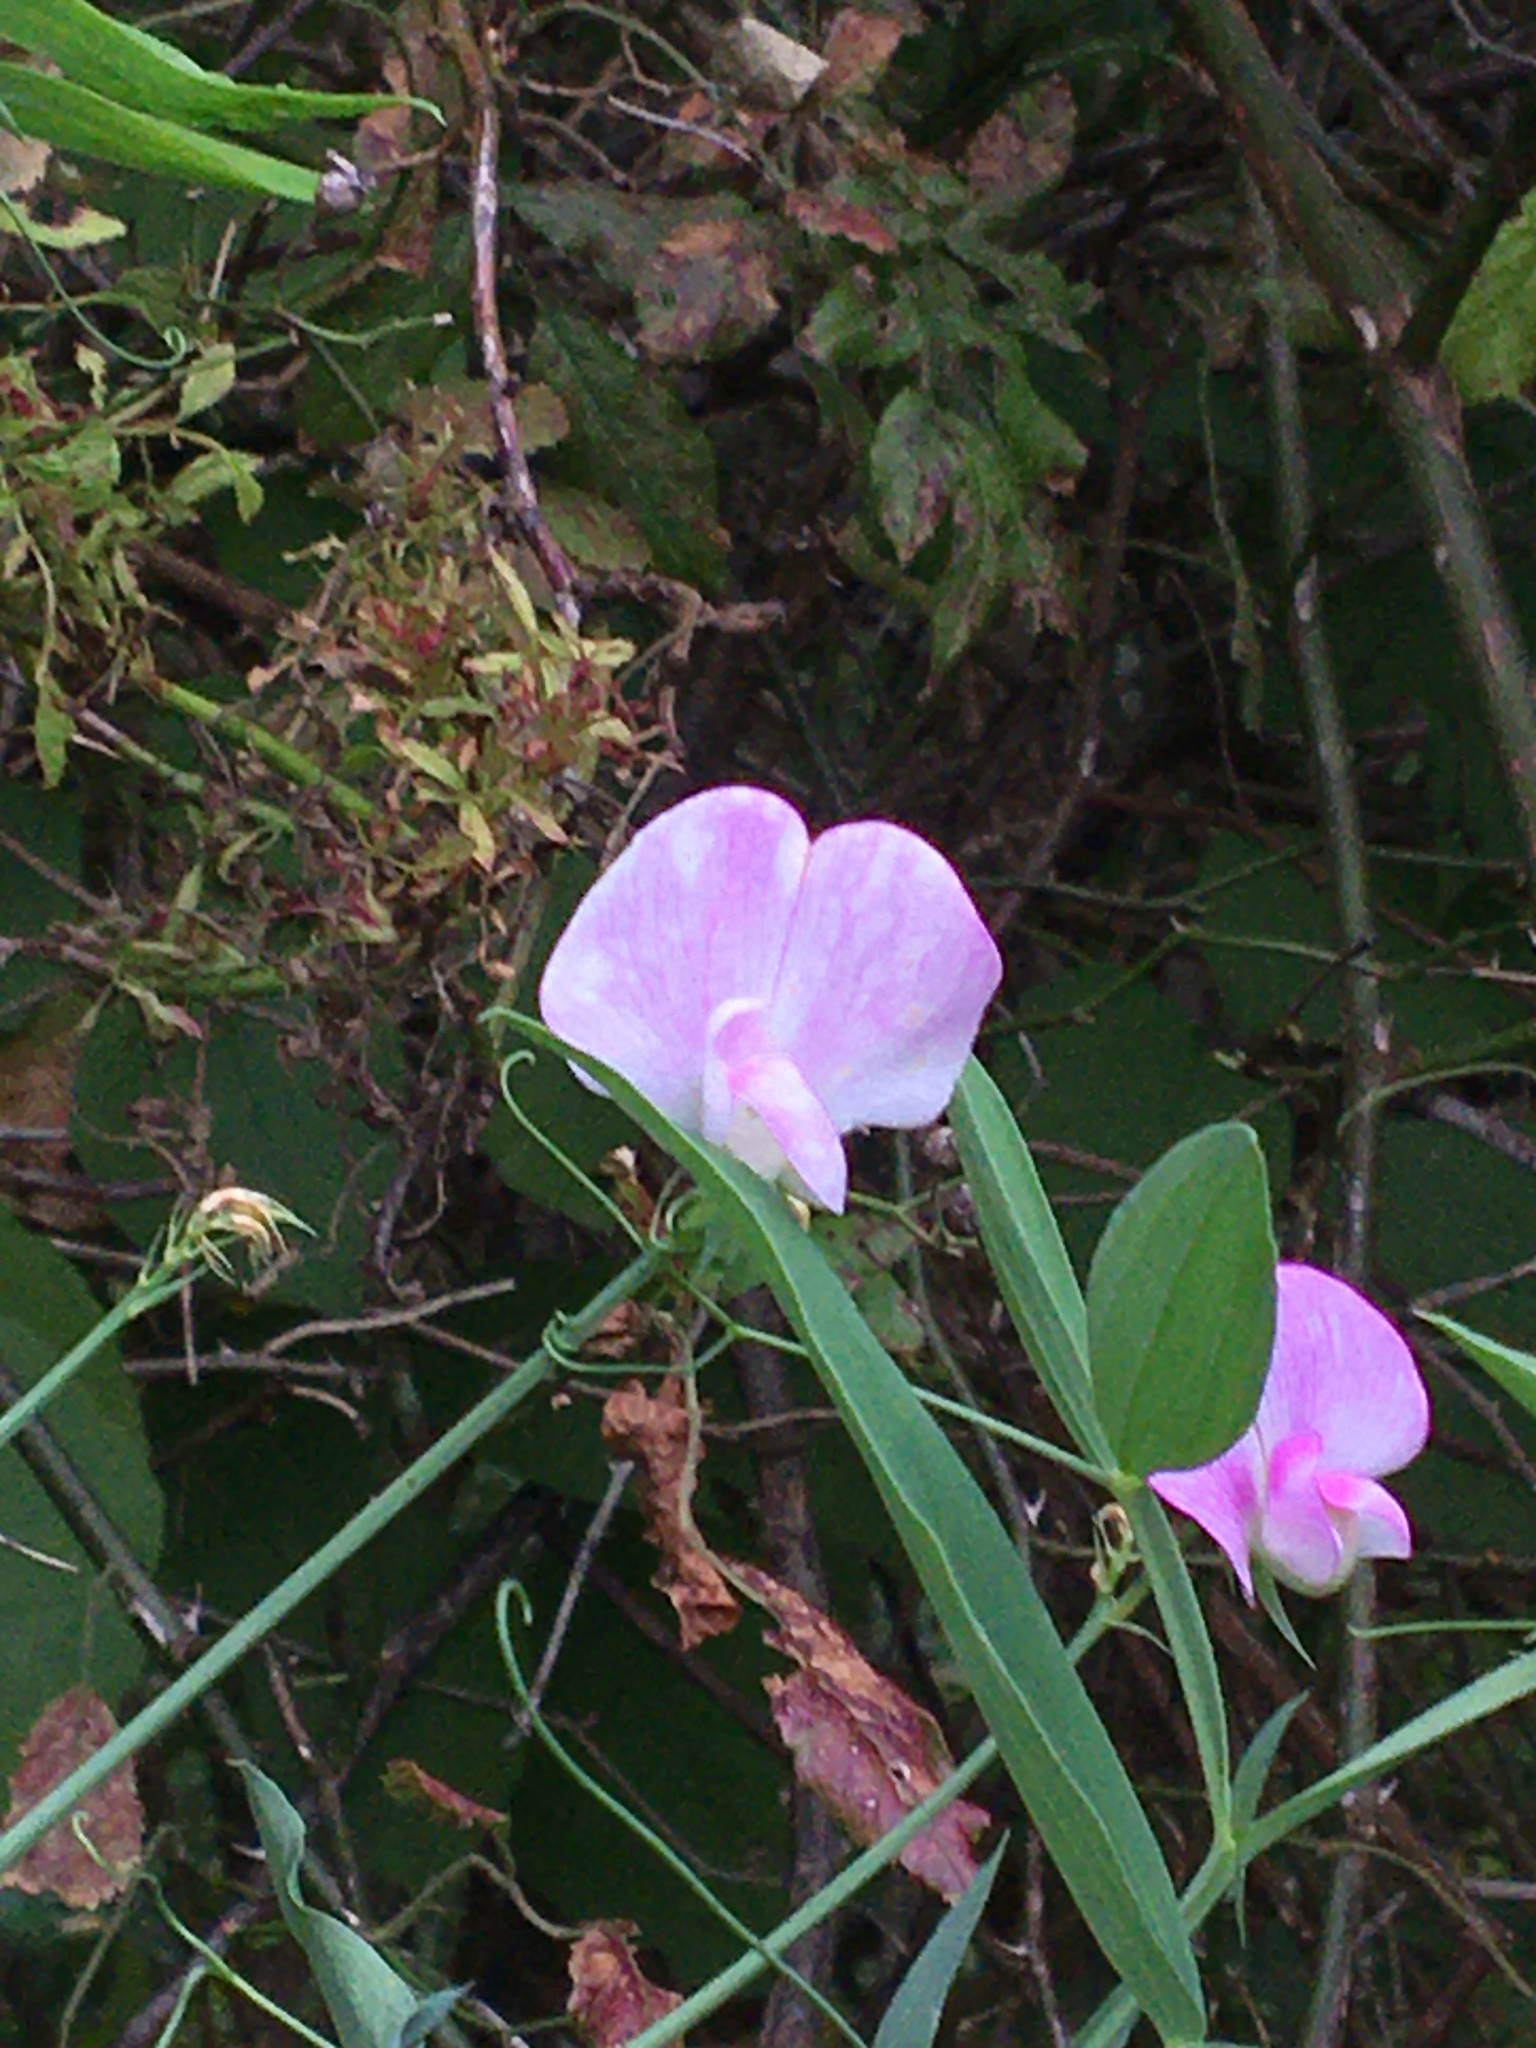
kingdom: Plantae
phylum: Tracheophyta
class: Magnoliopsida
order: Fabales
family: Fabaceae
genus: Lathyrus
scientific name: Lathyrus latifolius
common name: Perennial pea
